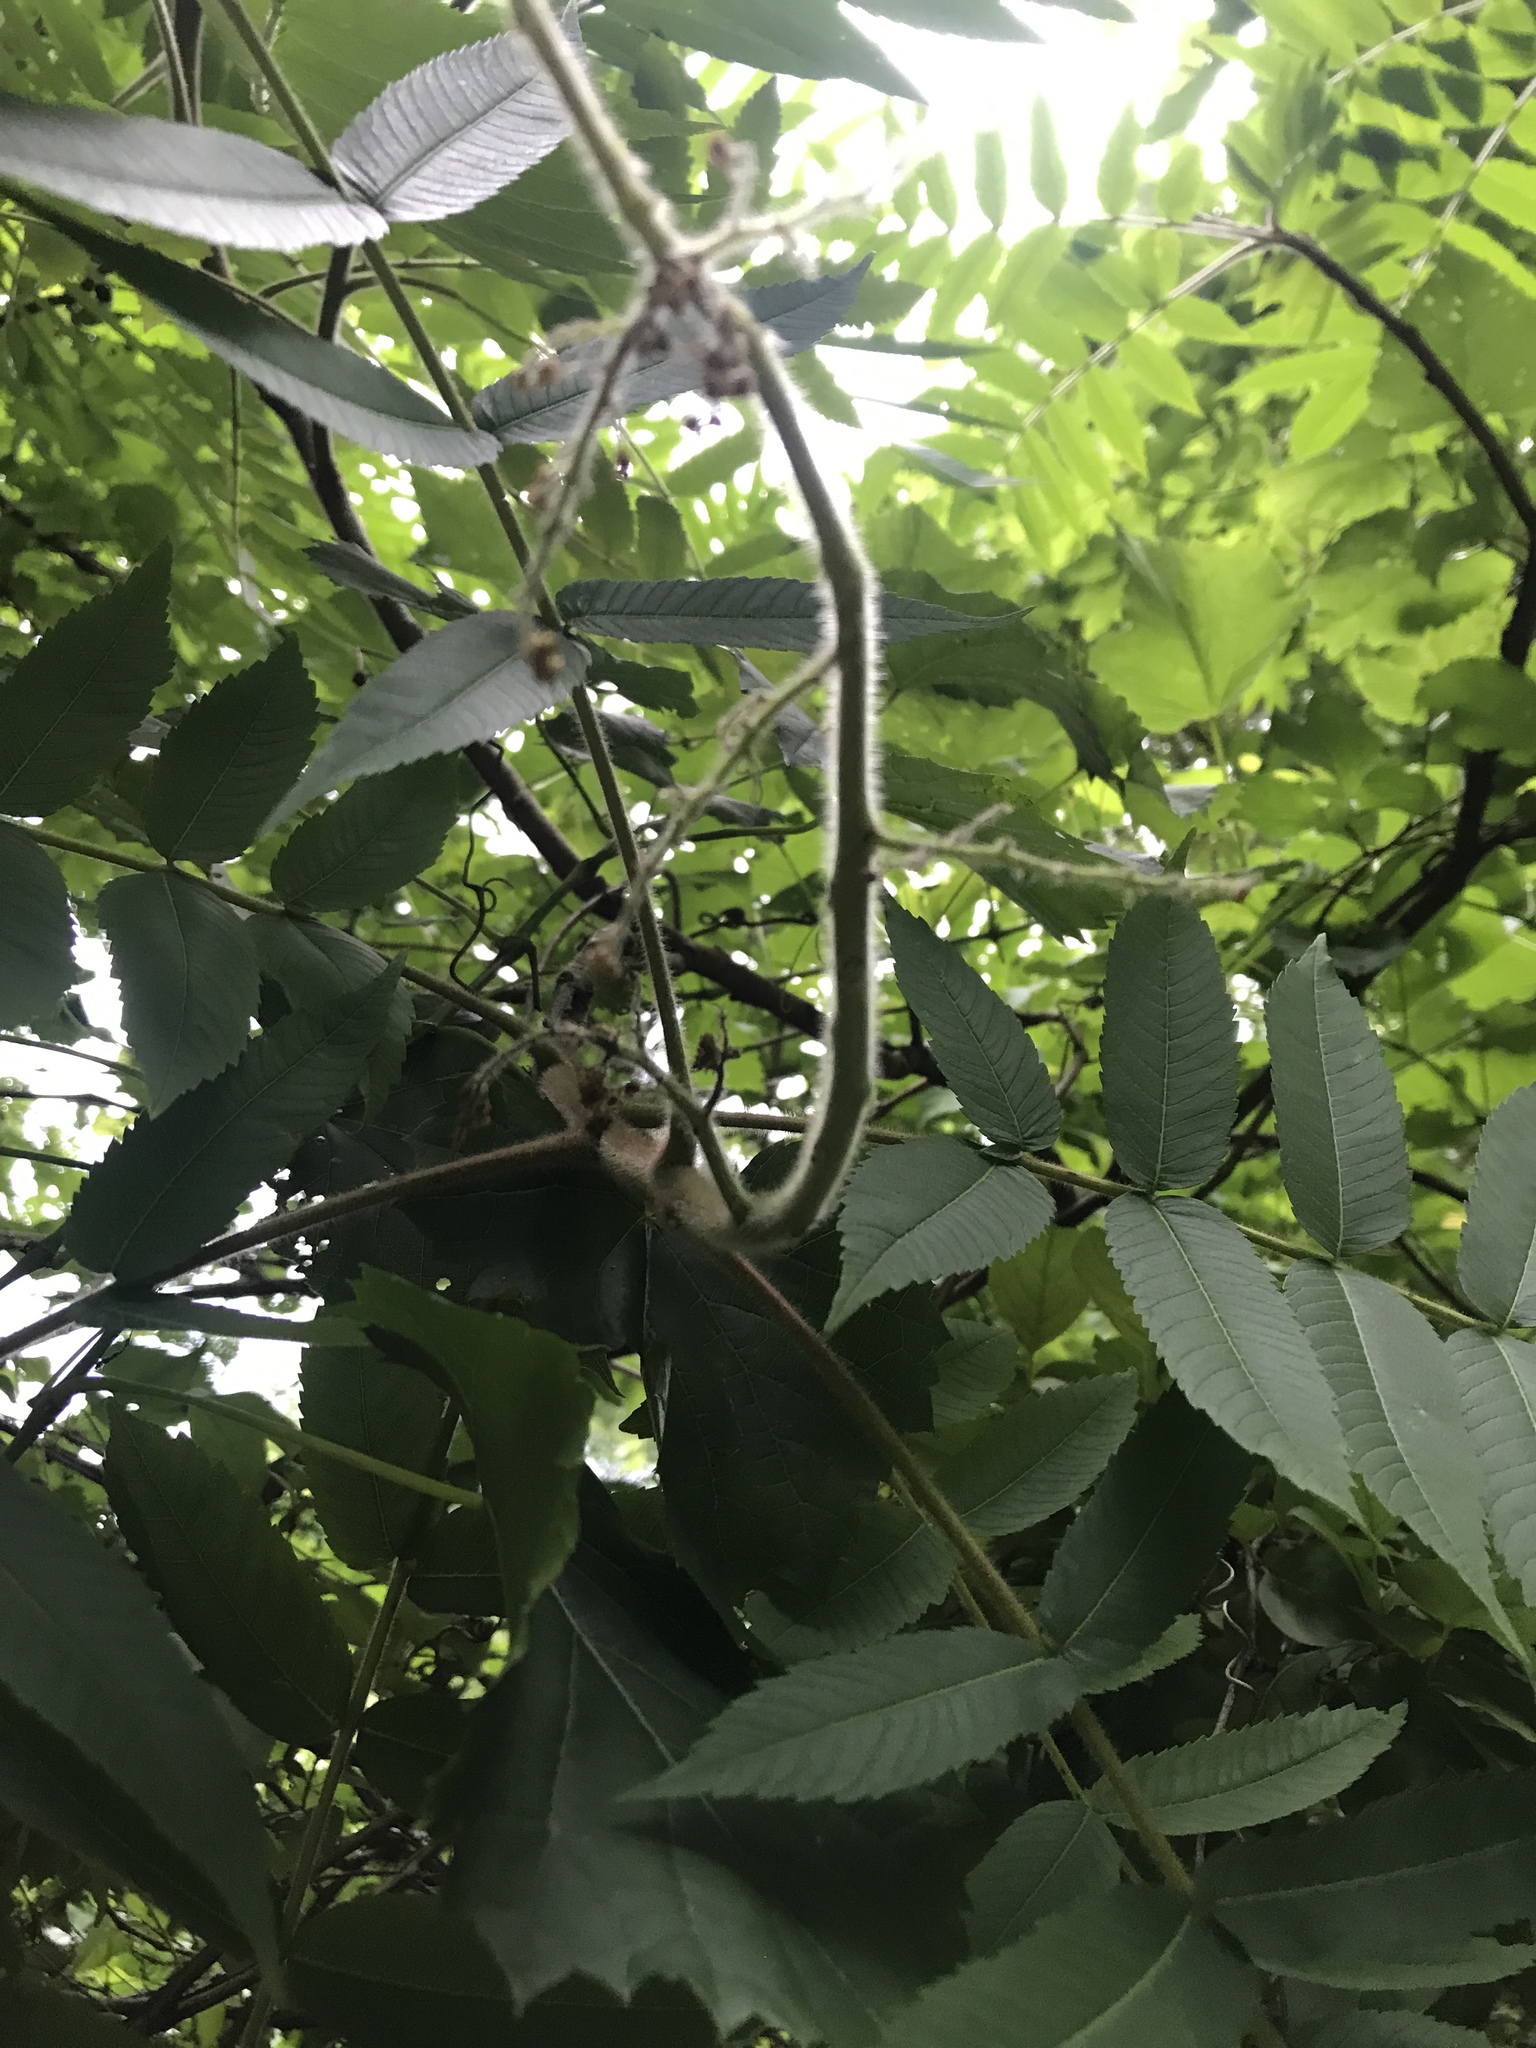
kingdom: Plantae
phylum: Tracheophyta
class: Magnoliopsida
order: Sapindales
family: Anacardiaceae
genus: Rhus
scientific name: Rhus typhina
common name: Staghorn sumac
